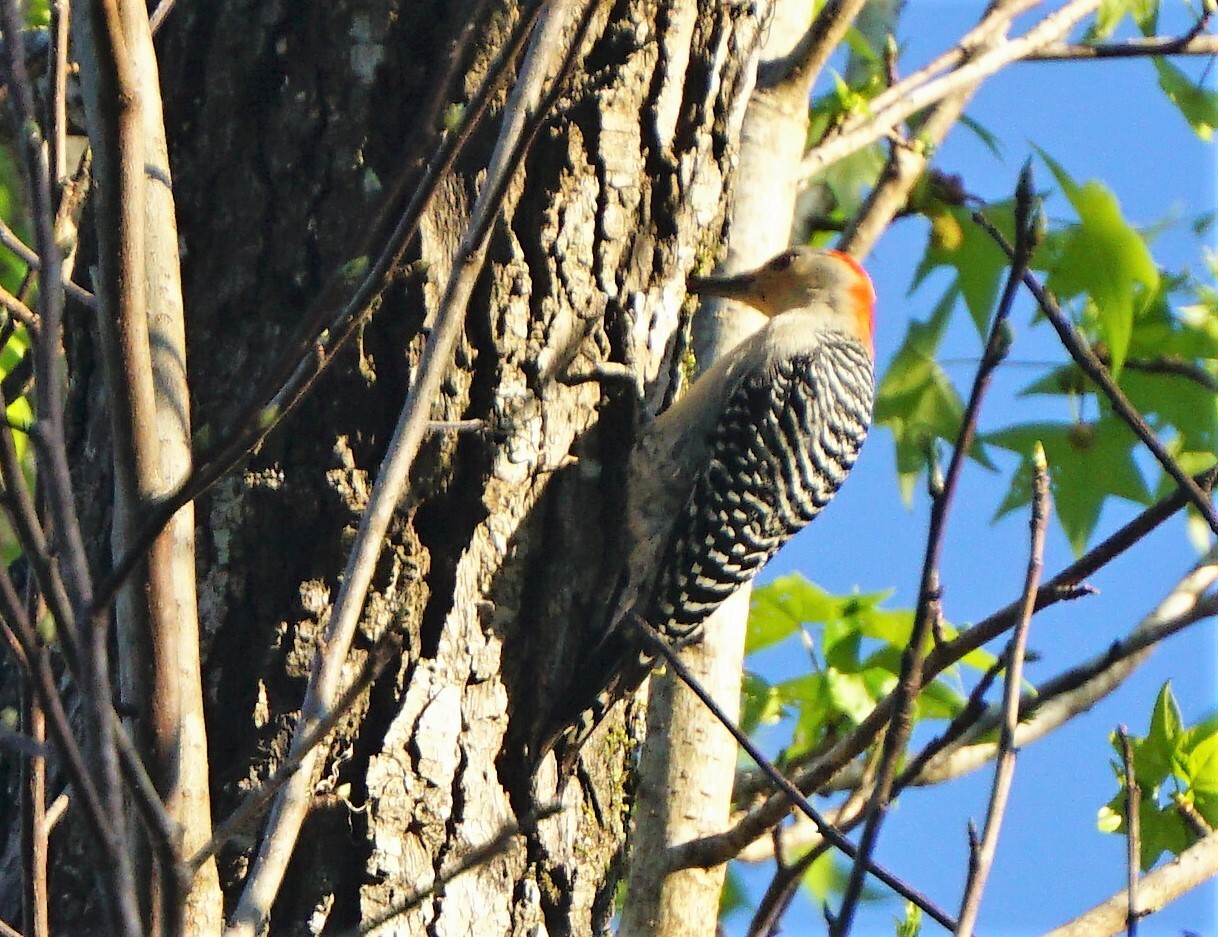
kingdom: Animalia
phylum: Chordata
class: Aves
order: Piciformes
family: Picidae
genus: Melanerpes
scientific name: Melanerpes carolinus
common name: Red-bellied woodpecker
